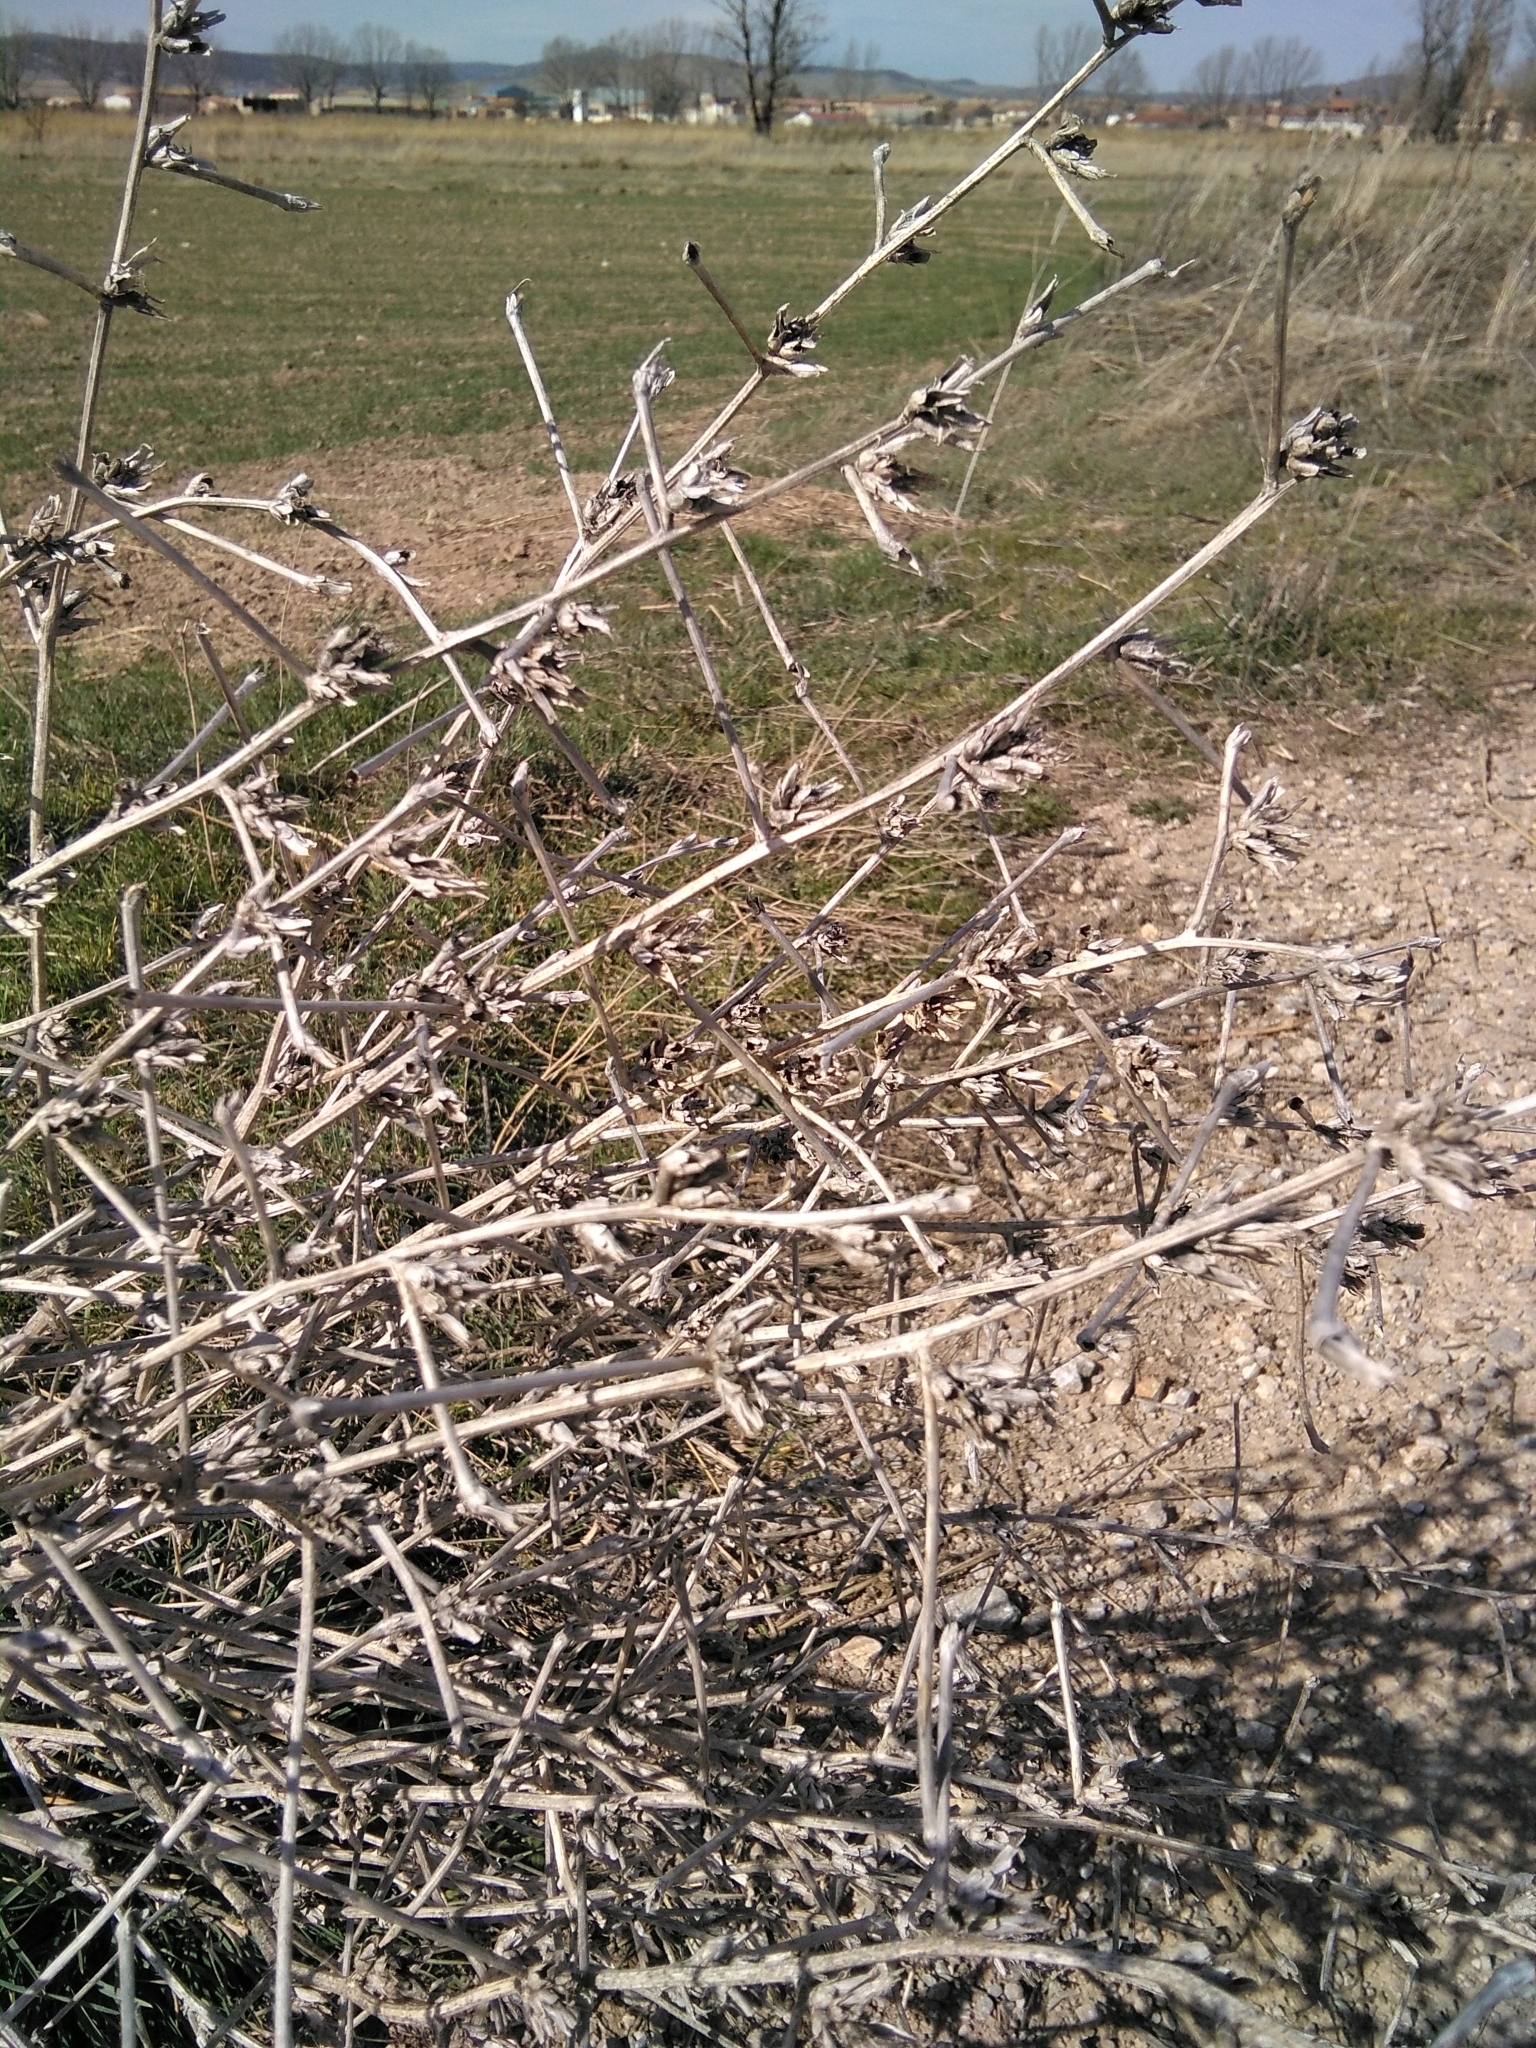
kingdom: Plantae
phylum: Tracheophyta
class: Magnoliopsida
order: Asterales
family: Asteraceae
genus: Cichorium
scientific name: Cichorium intybus
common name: Chicory
